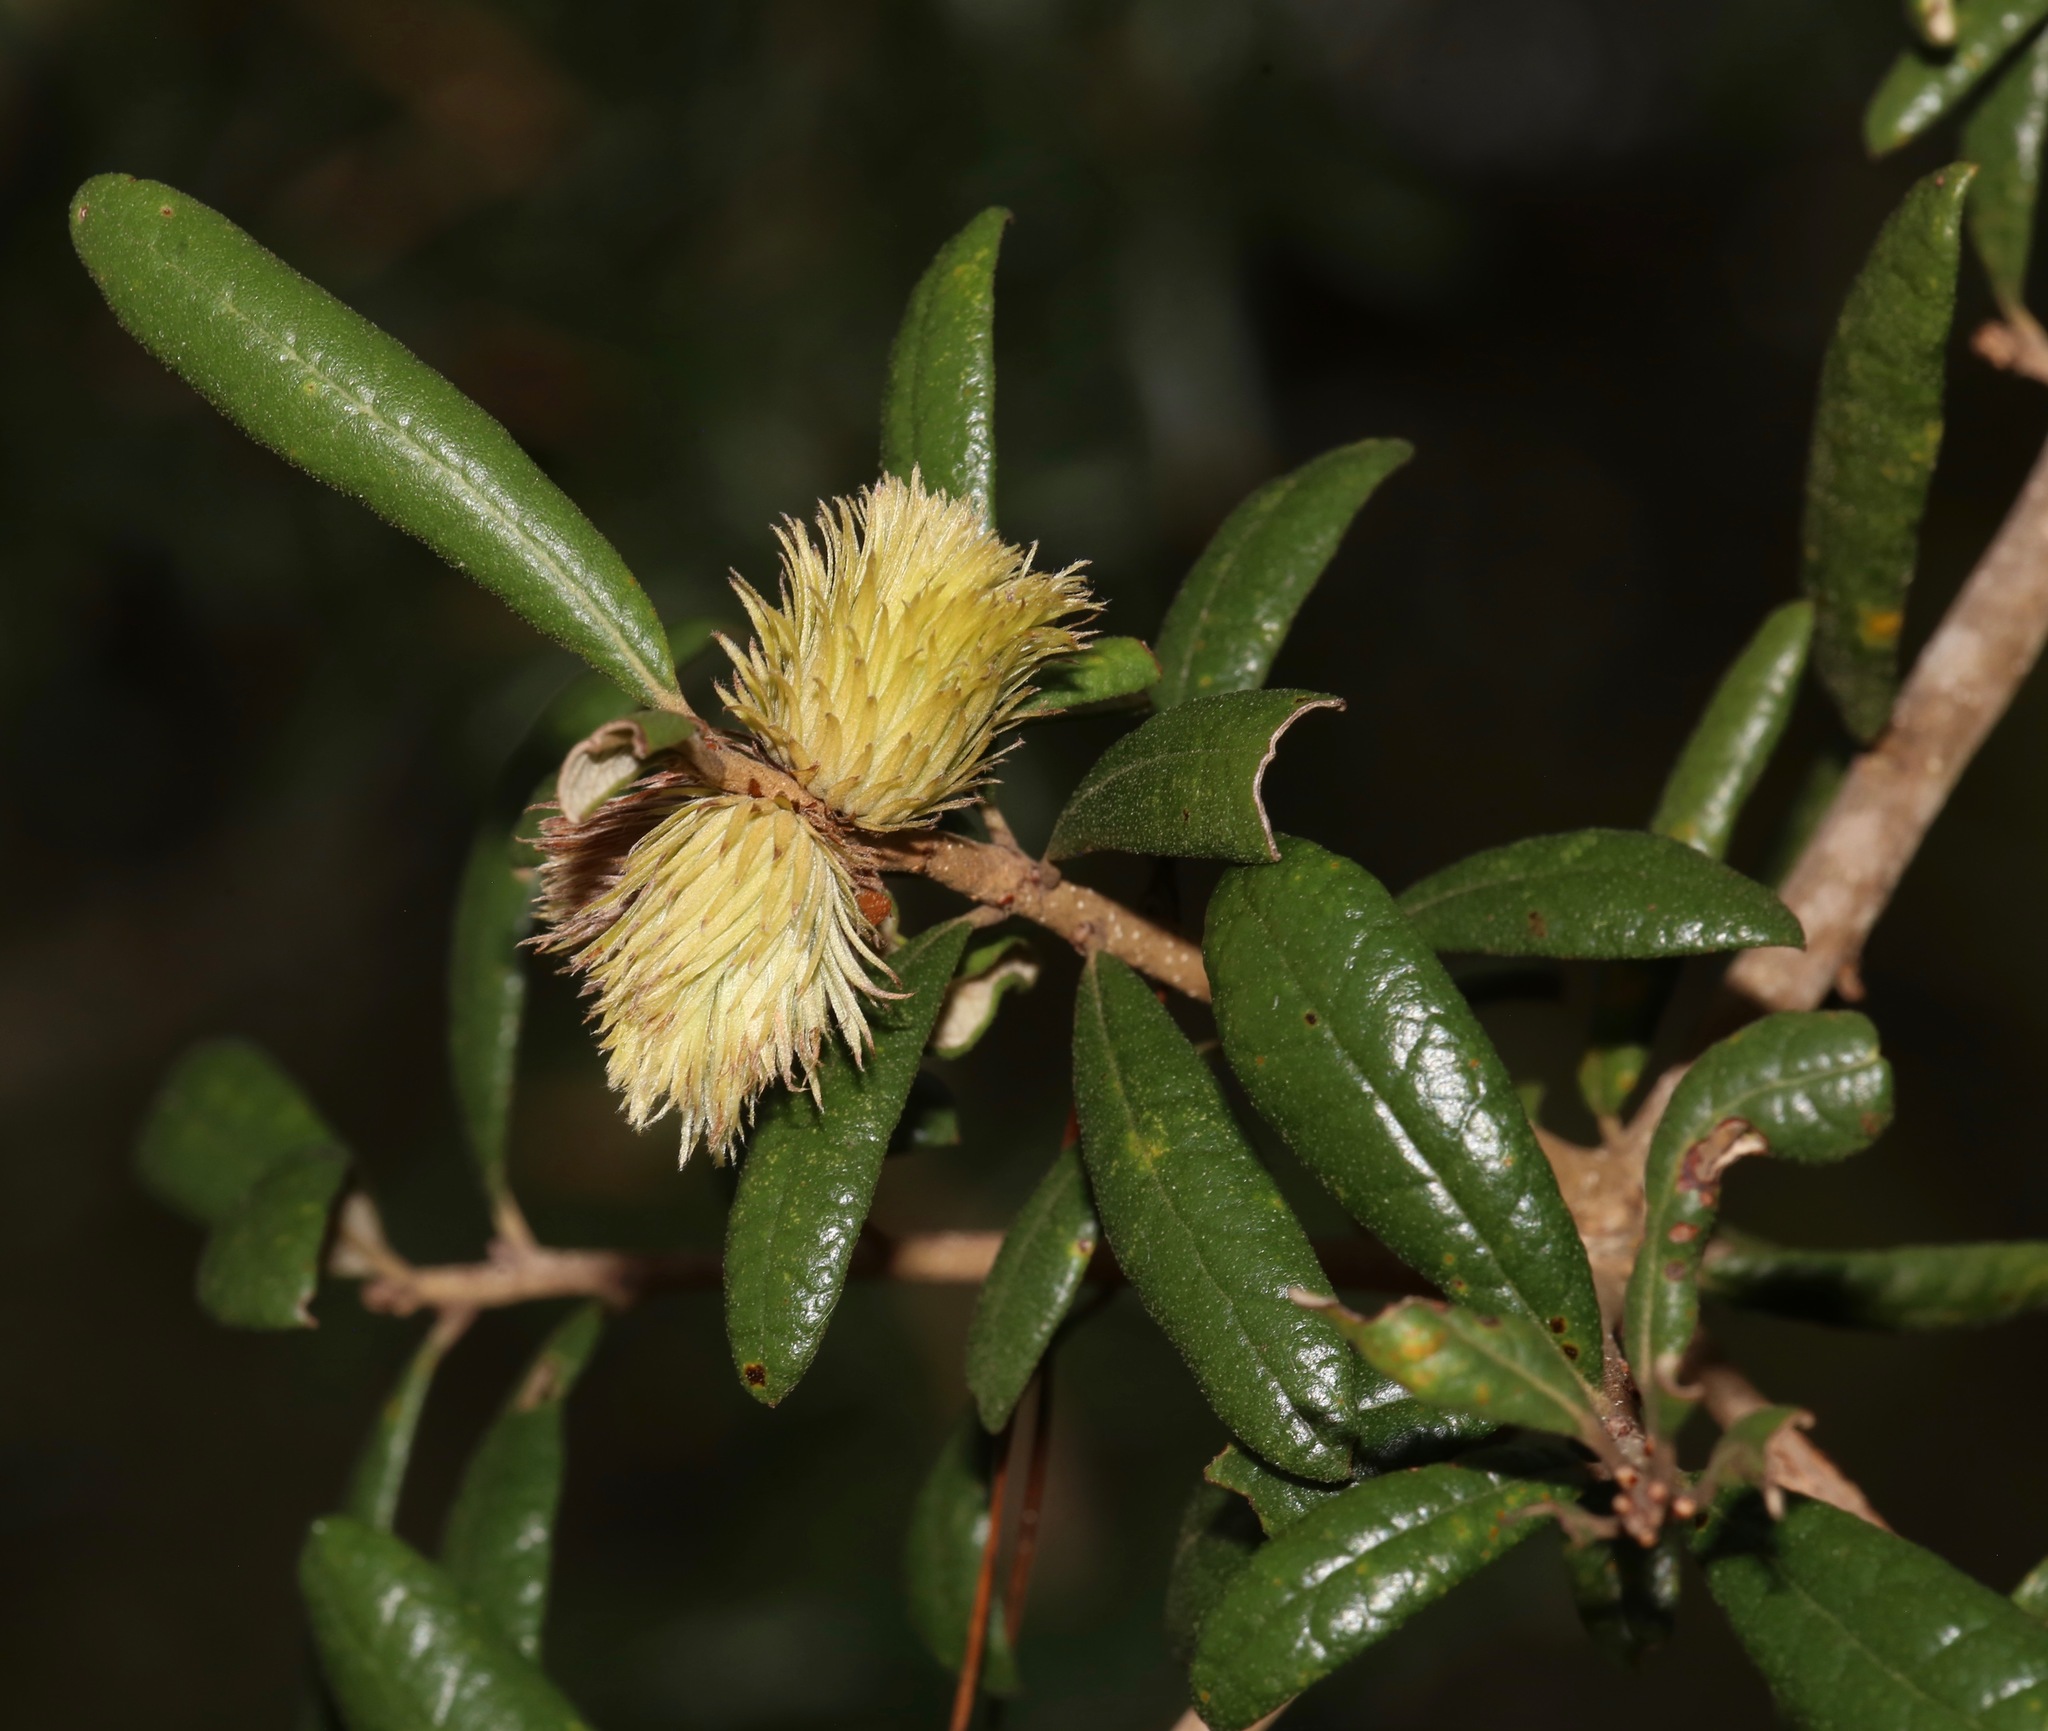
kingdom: Animalia
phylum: Arthropoda
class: Insecta
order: Hymenoptera
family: Cynipidae
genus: Andricus
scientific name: Andricus quercusfoliatus
